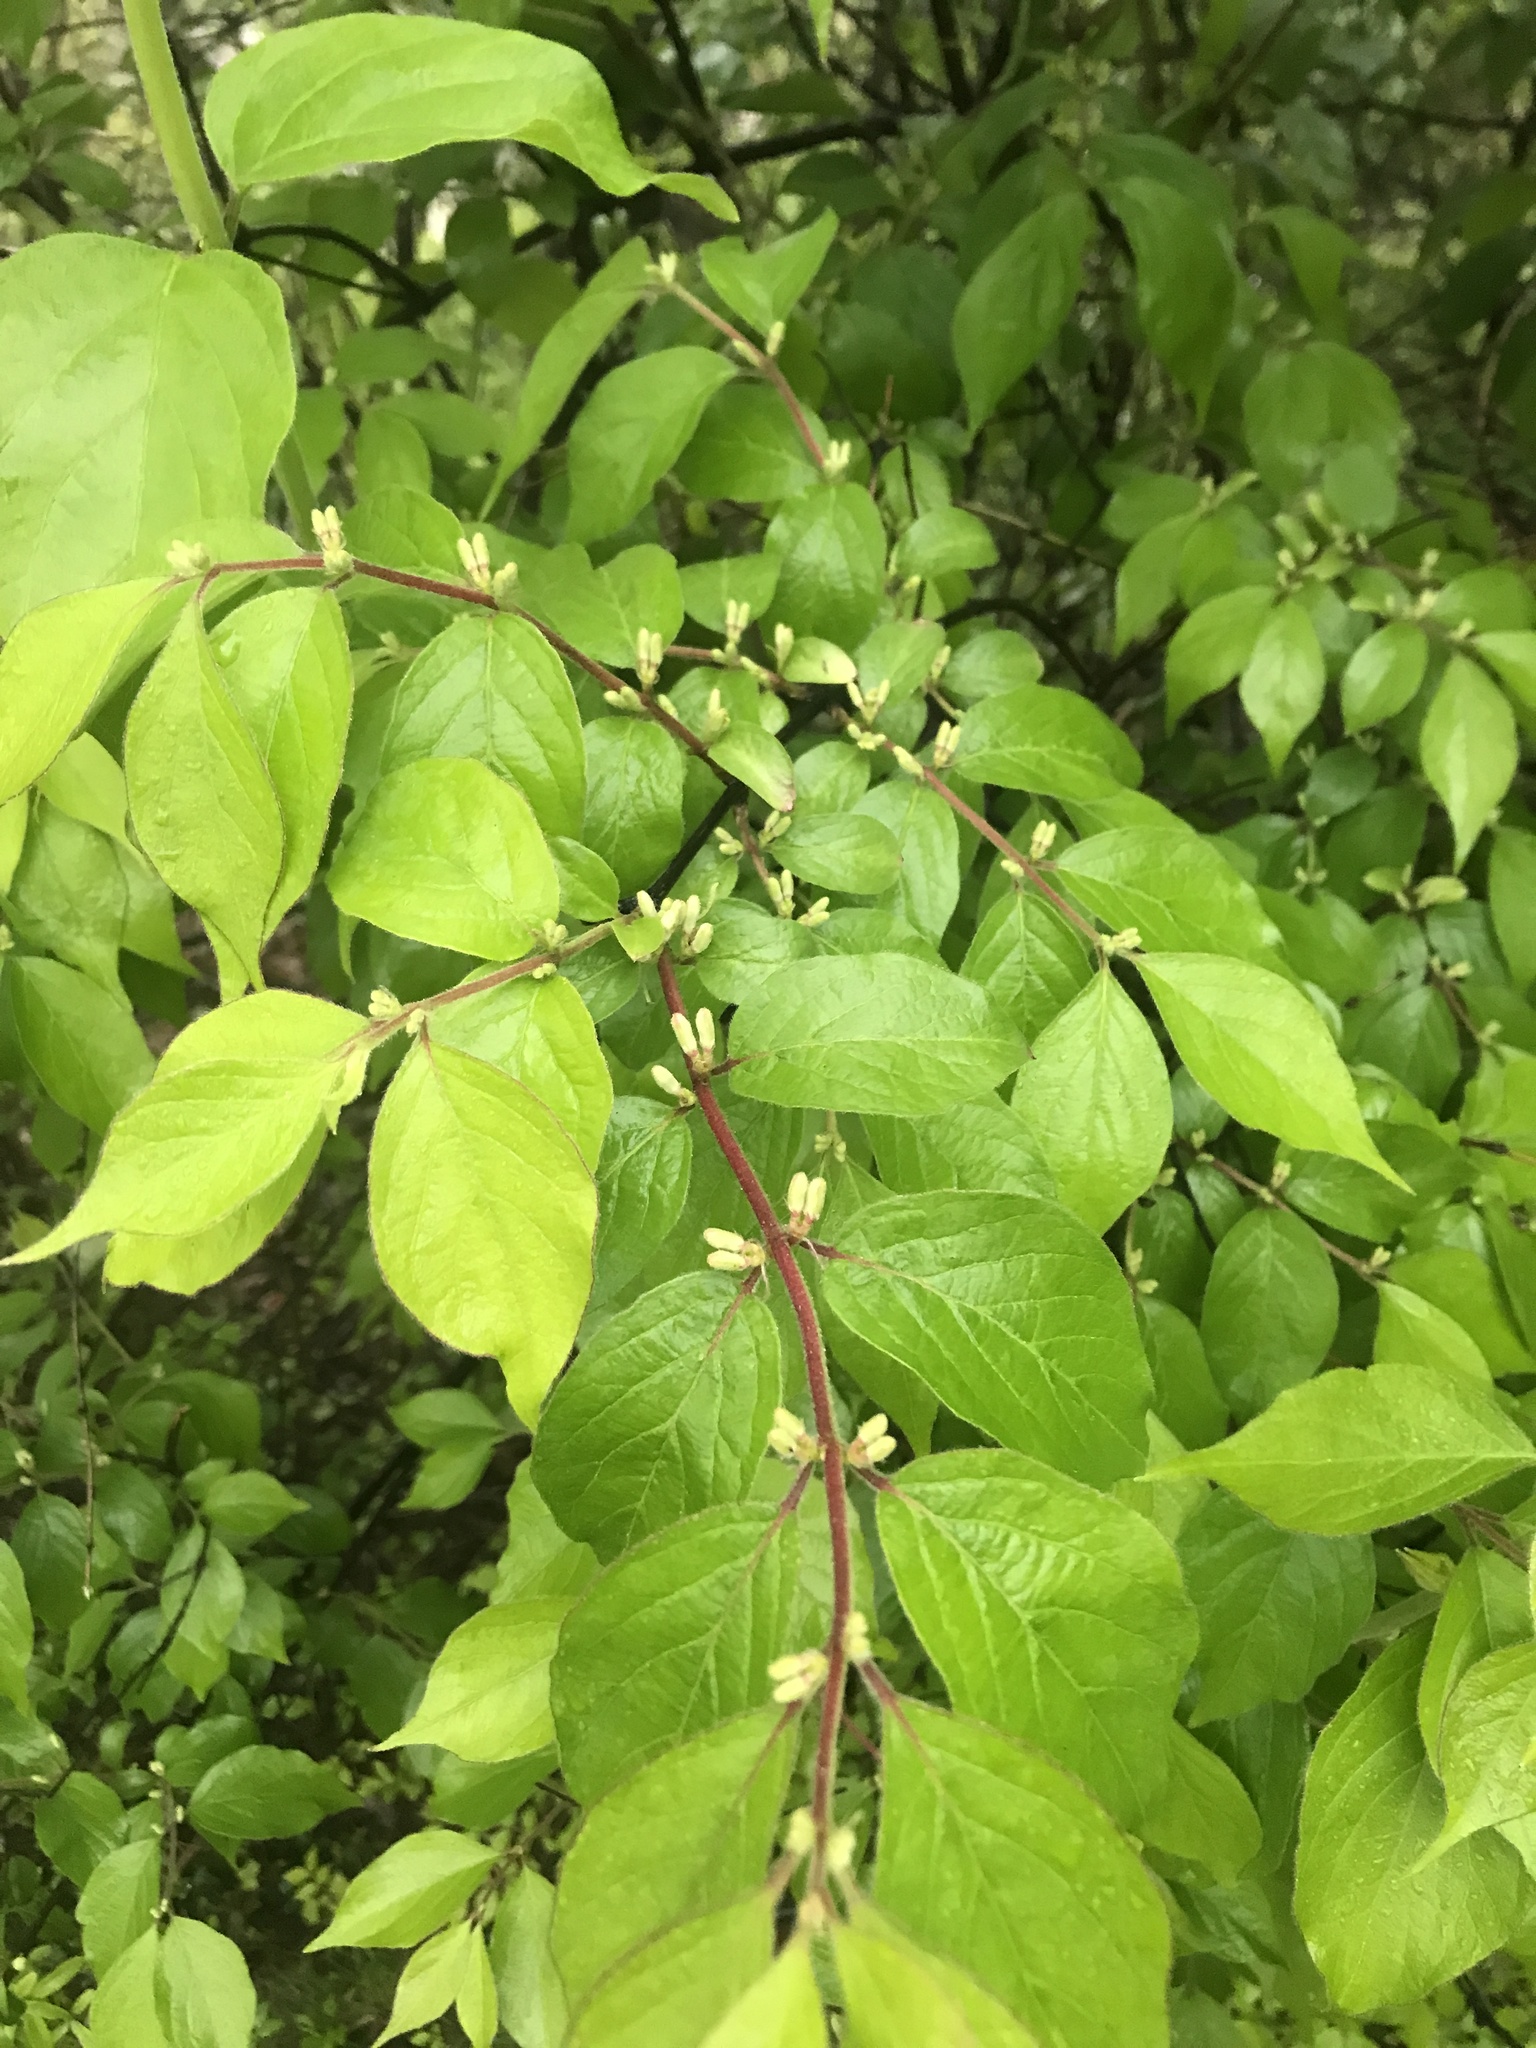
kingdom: Plantae
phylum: Tracheophyta
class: Magnoliopsida
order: Dipsacales
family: Caprifoliaceae
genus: Lonicera
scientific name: Lonicera maackii
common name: Amur honeysuckle
